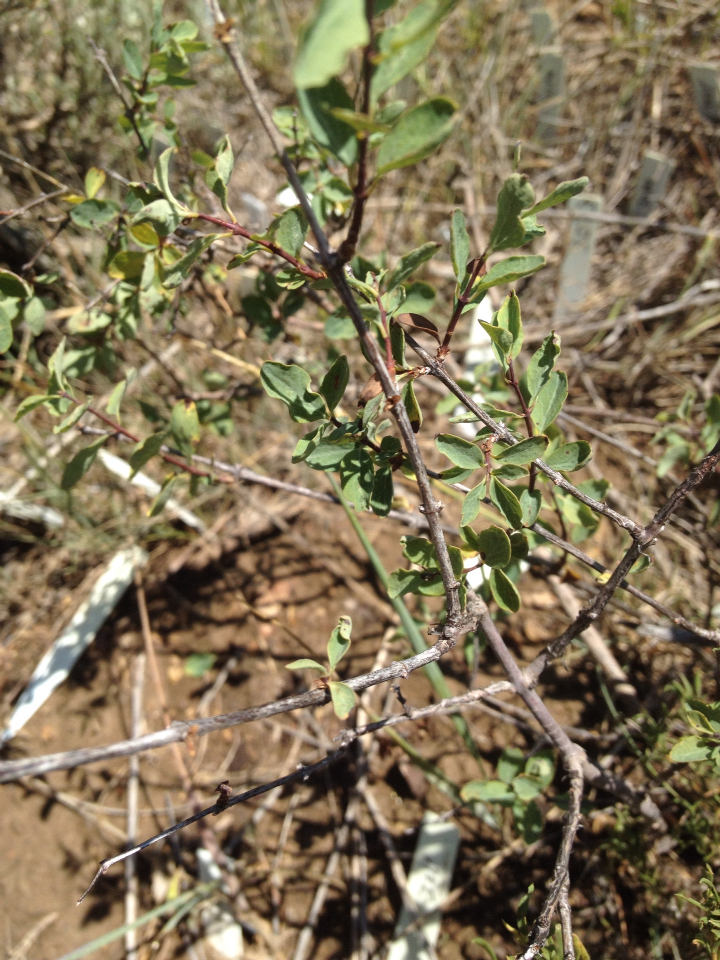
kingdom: Plantae
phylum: Tracheophyta
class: Magnoliopsida
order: Dipsacales
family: Caprifoliaceae
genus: Symphoricarpos
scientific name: Symphoricarpos rotundifolius
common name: Round-leaved snowberry
